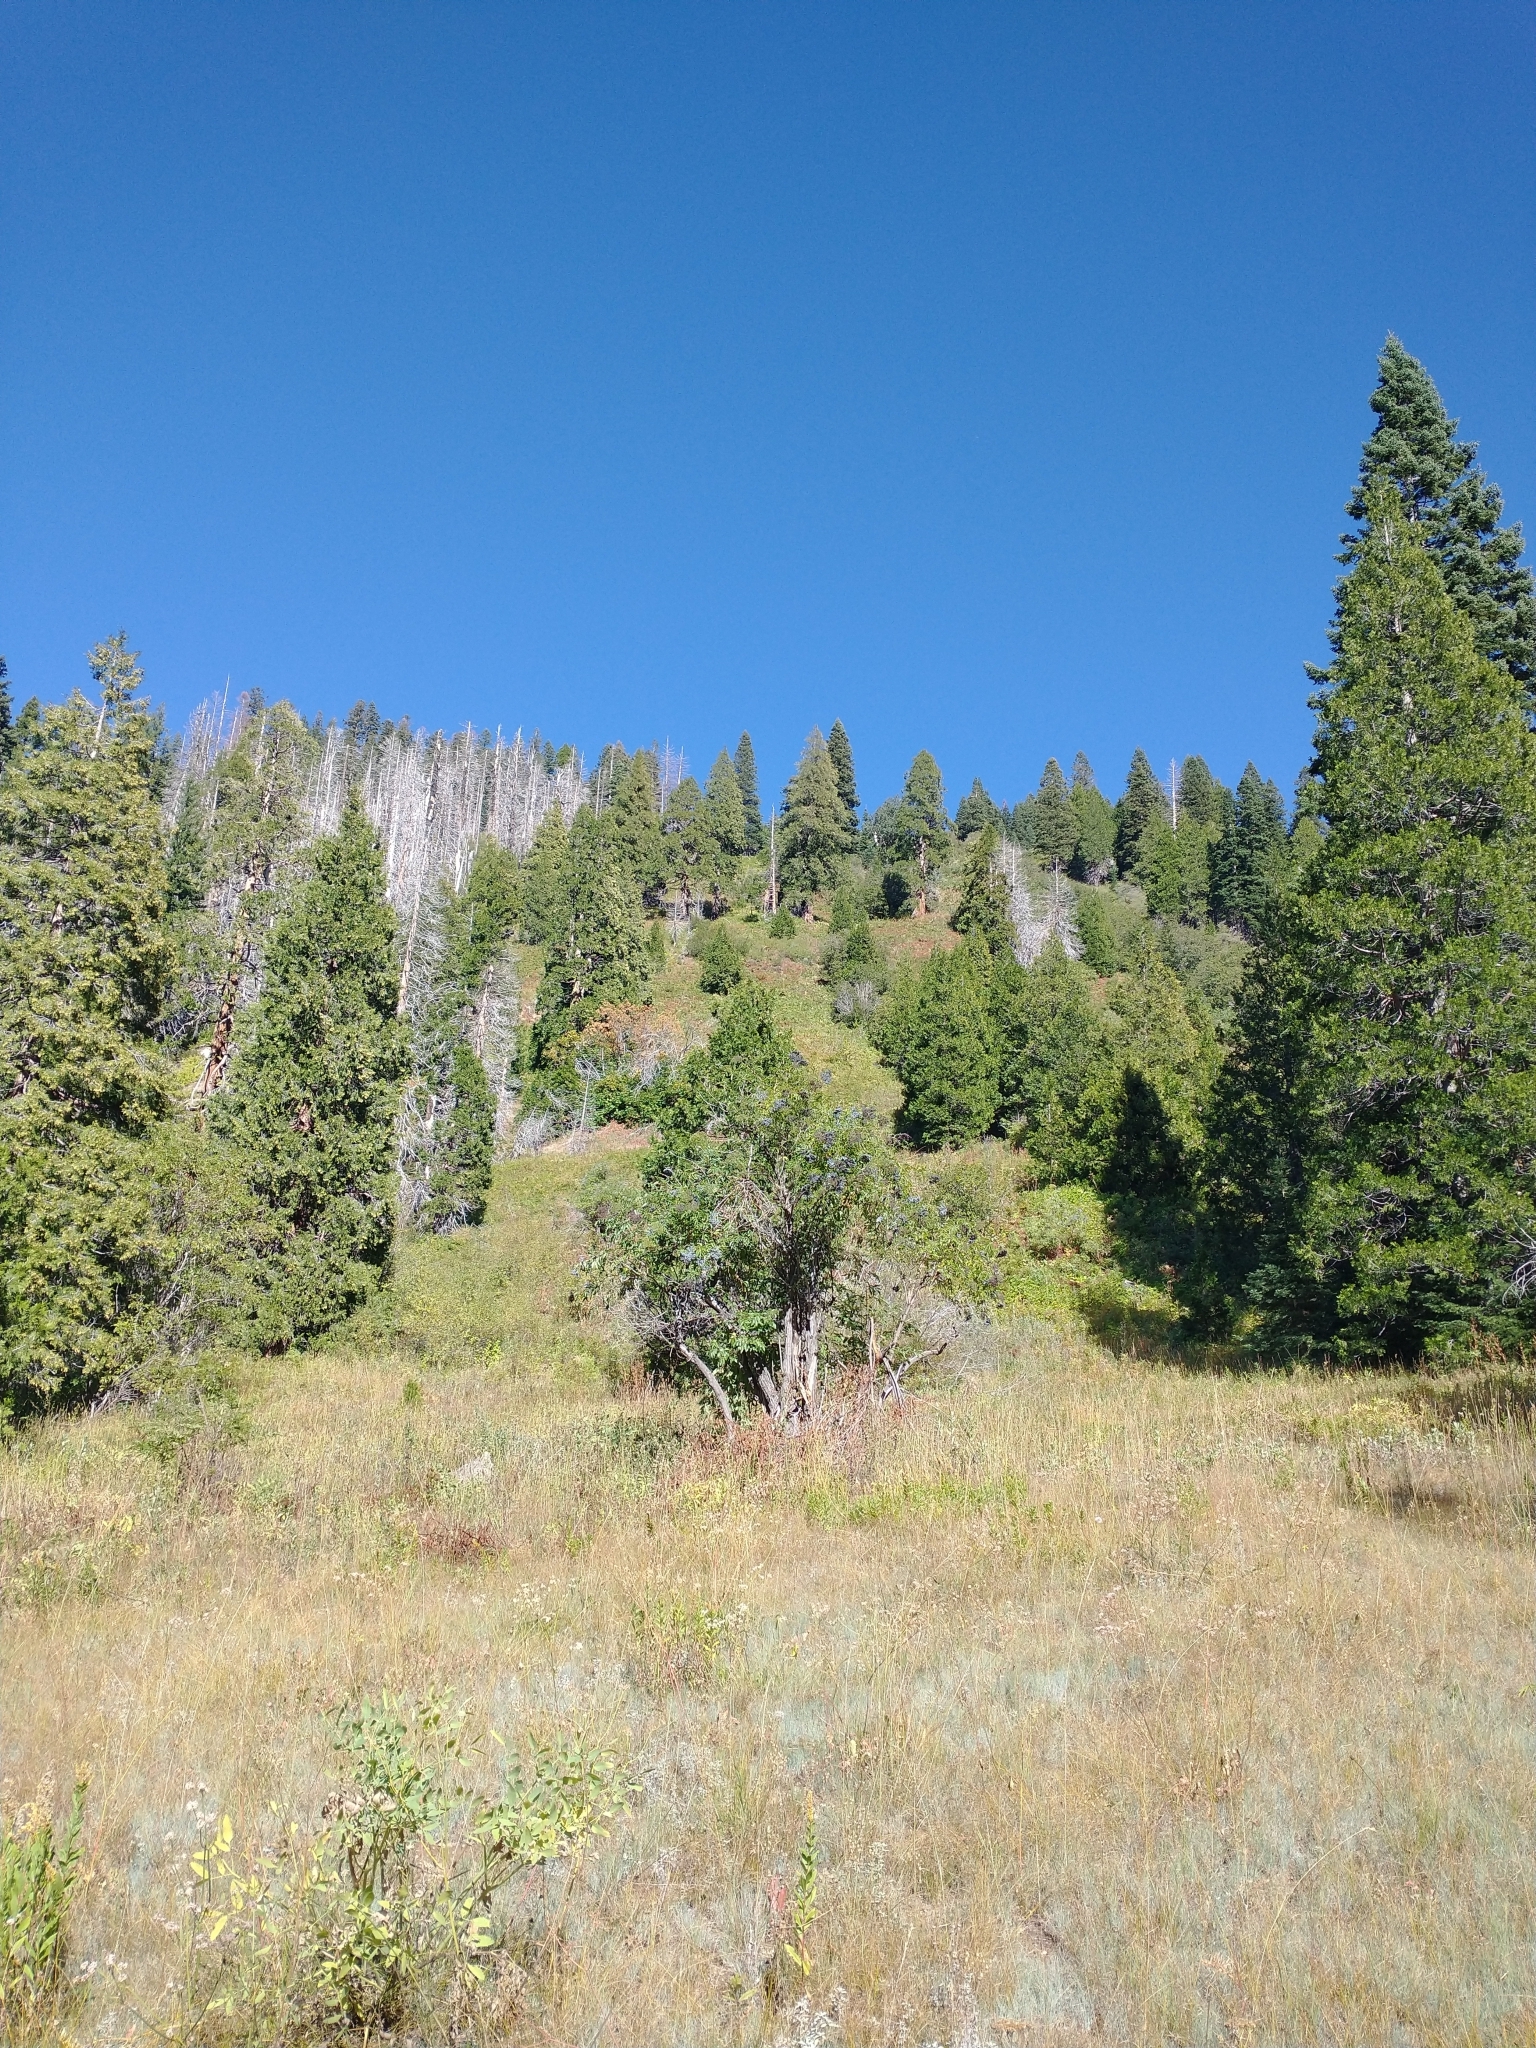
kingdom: Plantae
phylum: Tracheophyta
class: Magnoliopsida
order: Dipsacales
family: Viburnaceae
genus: Sambucus
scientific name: Sambucus cerulea
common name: Blue elder
